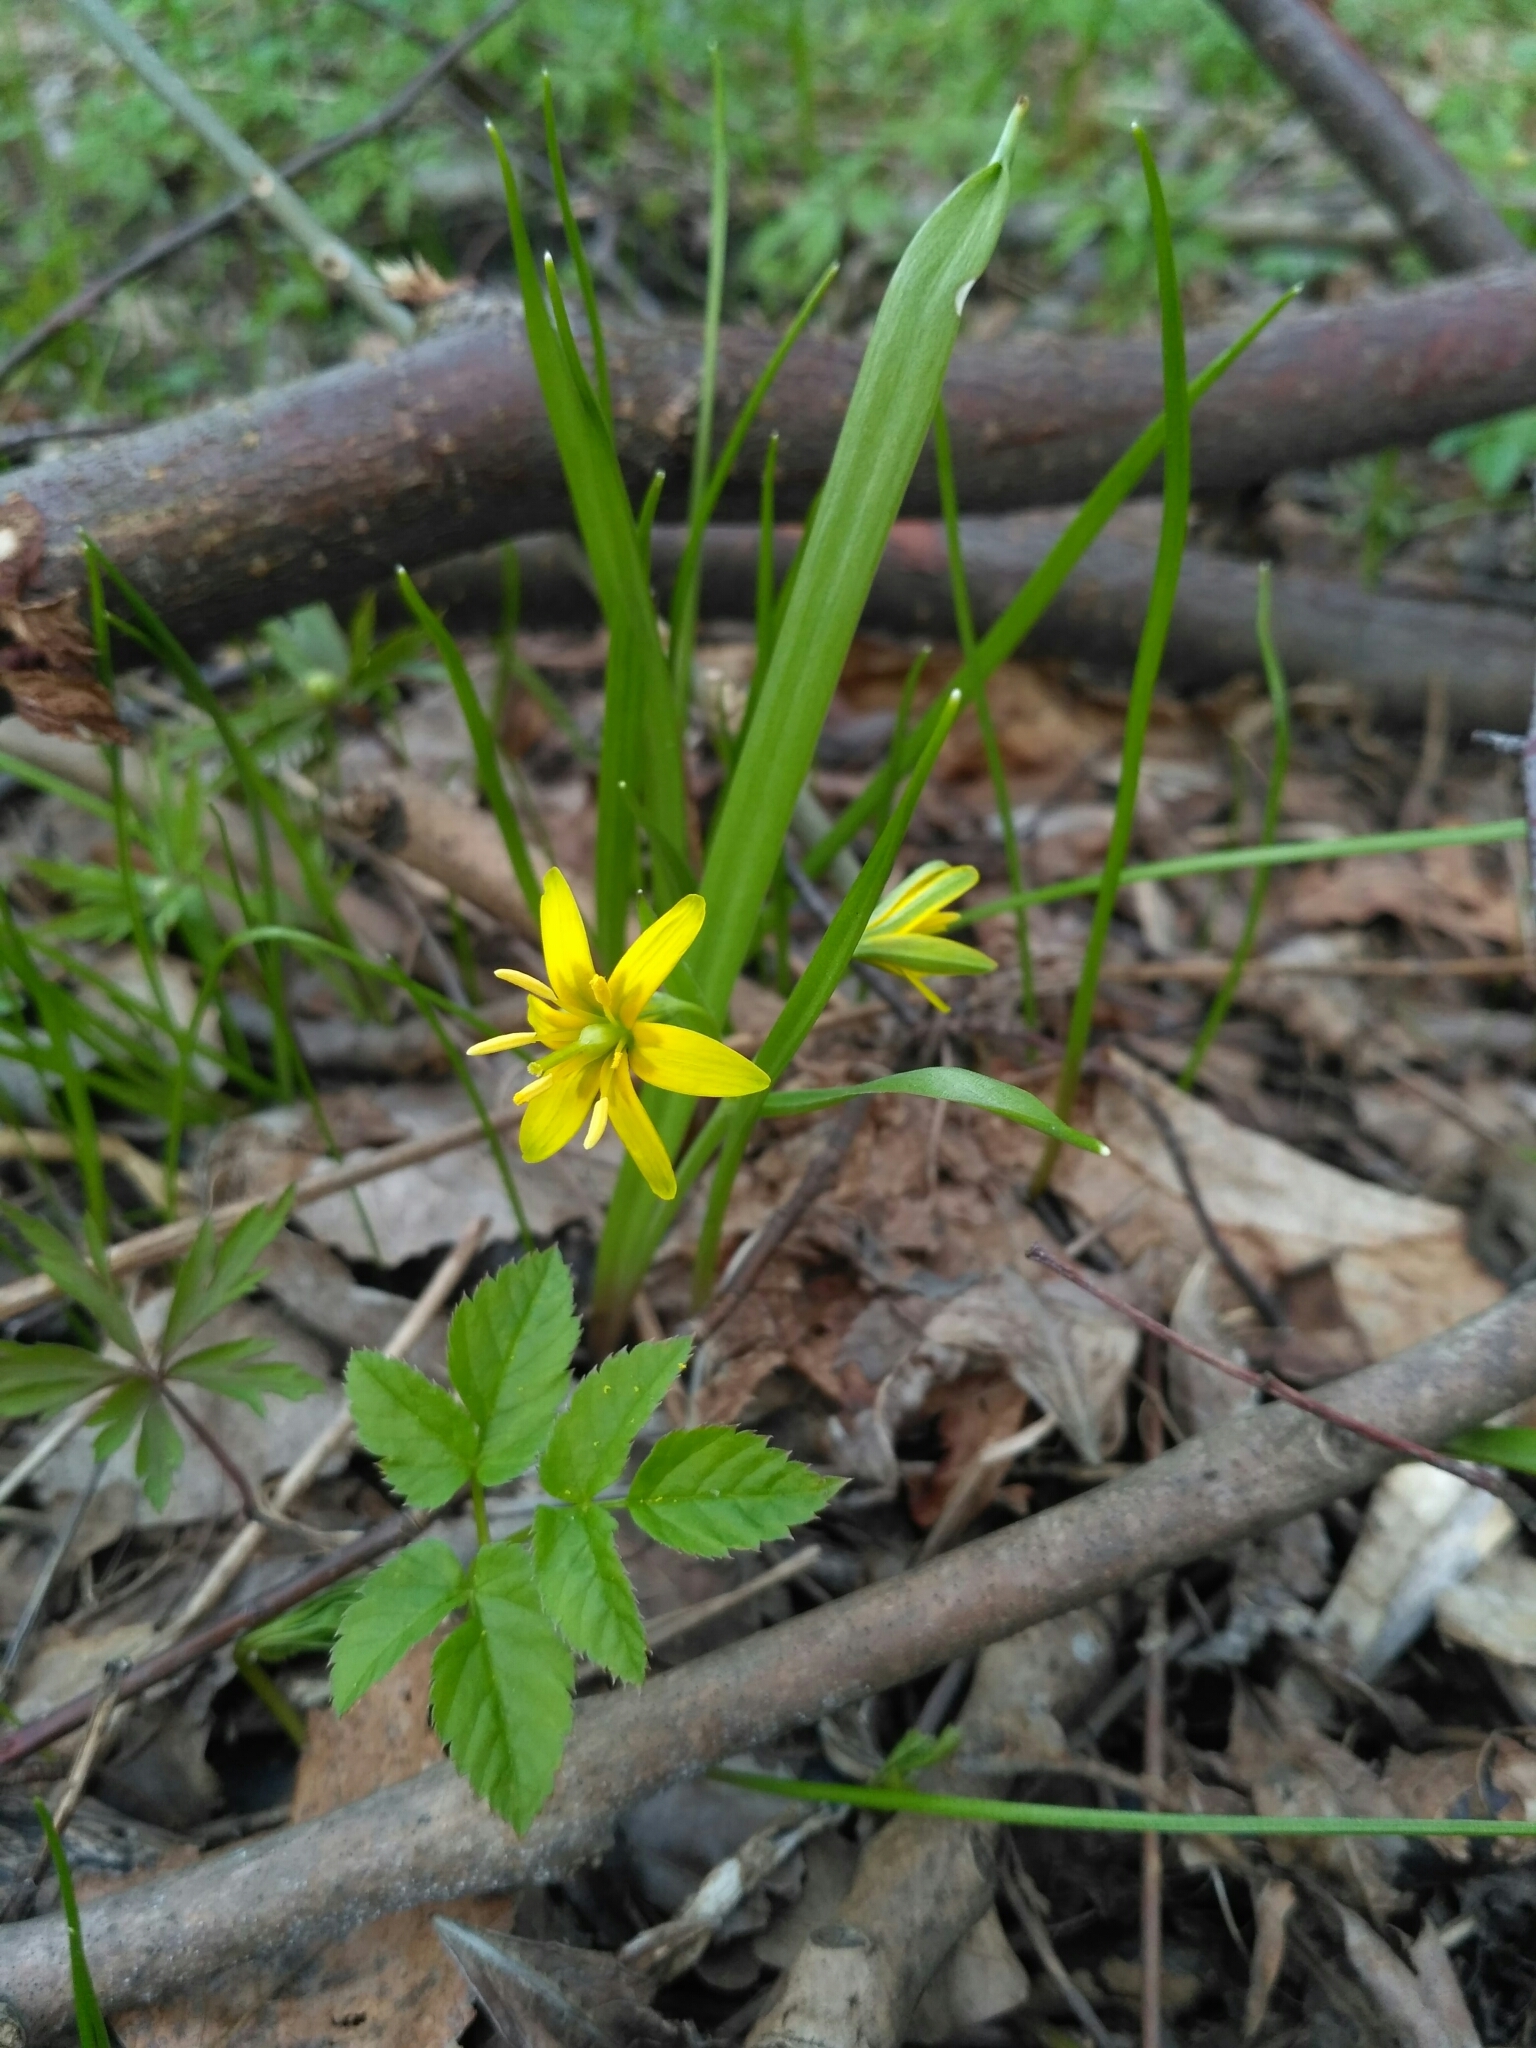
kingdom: Plantae
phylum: Tracheophyta
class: Liliopsida
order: Liliales
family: Liliaceae
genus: Gagea
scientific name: Gagea lutea
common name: Yellow star-of-bethlehem
